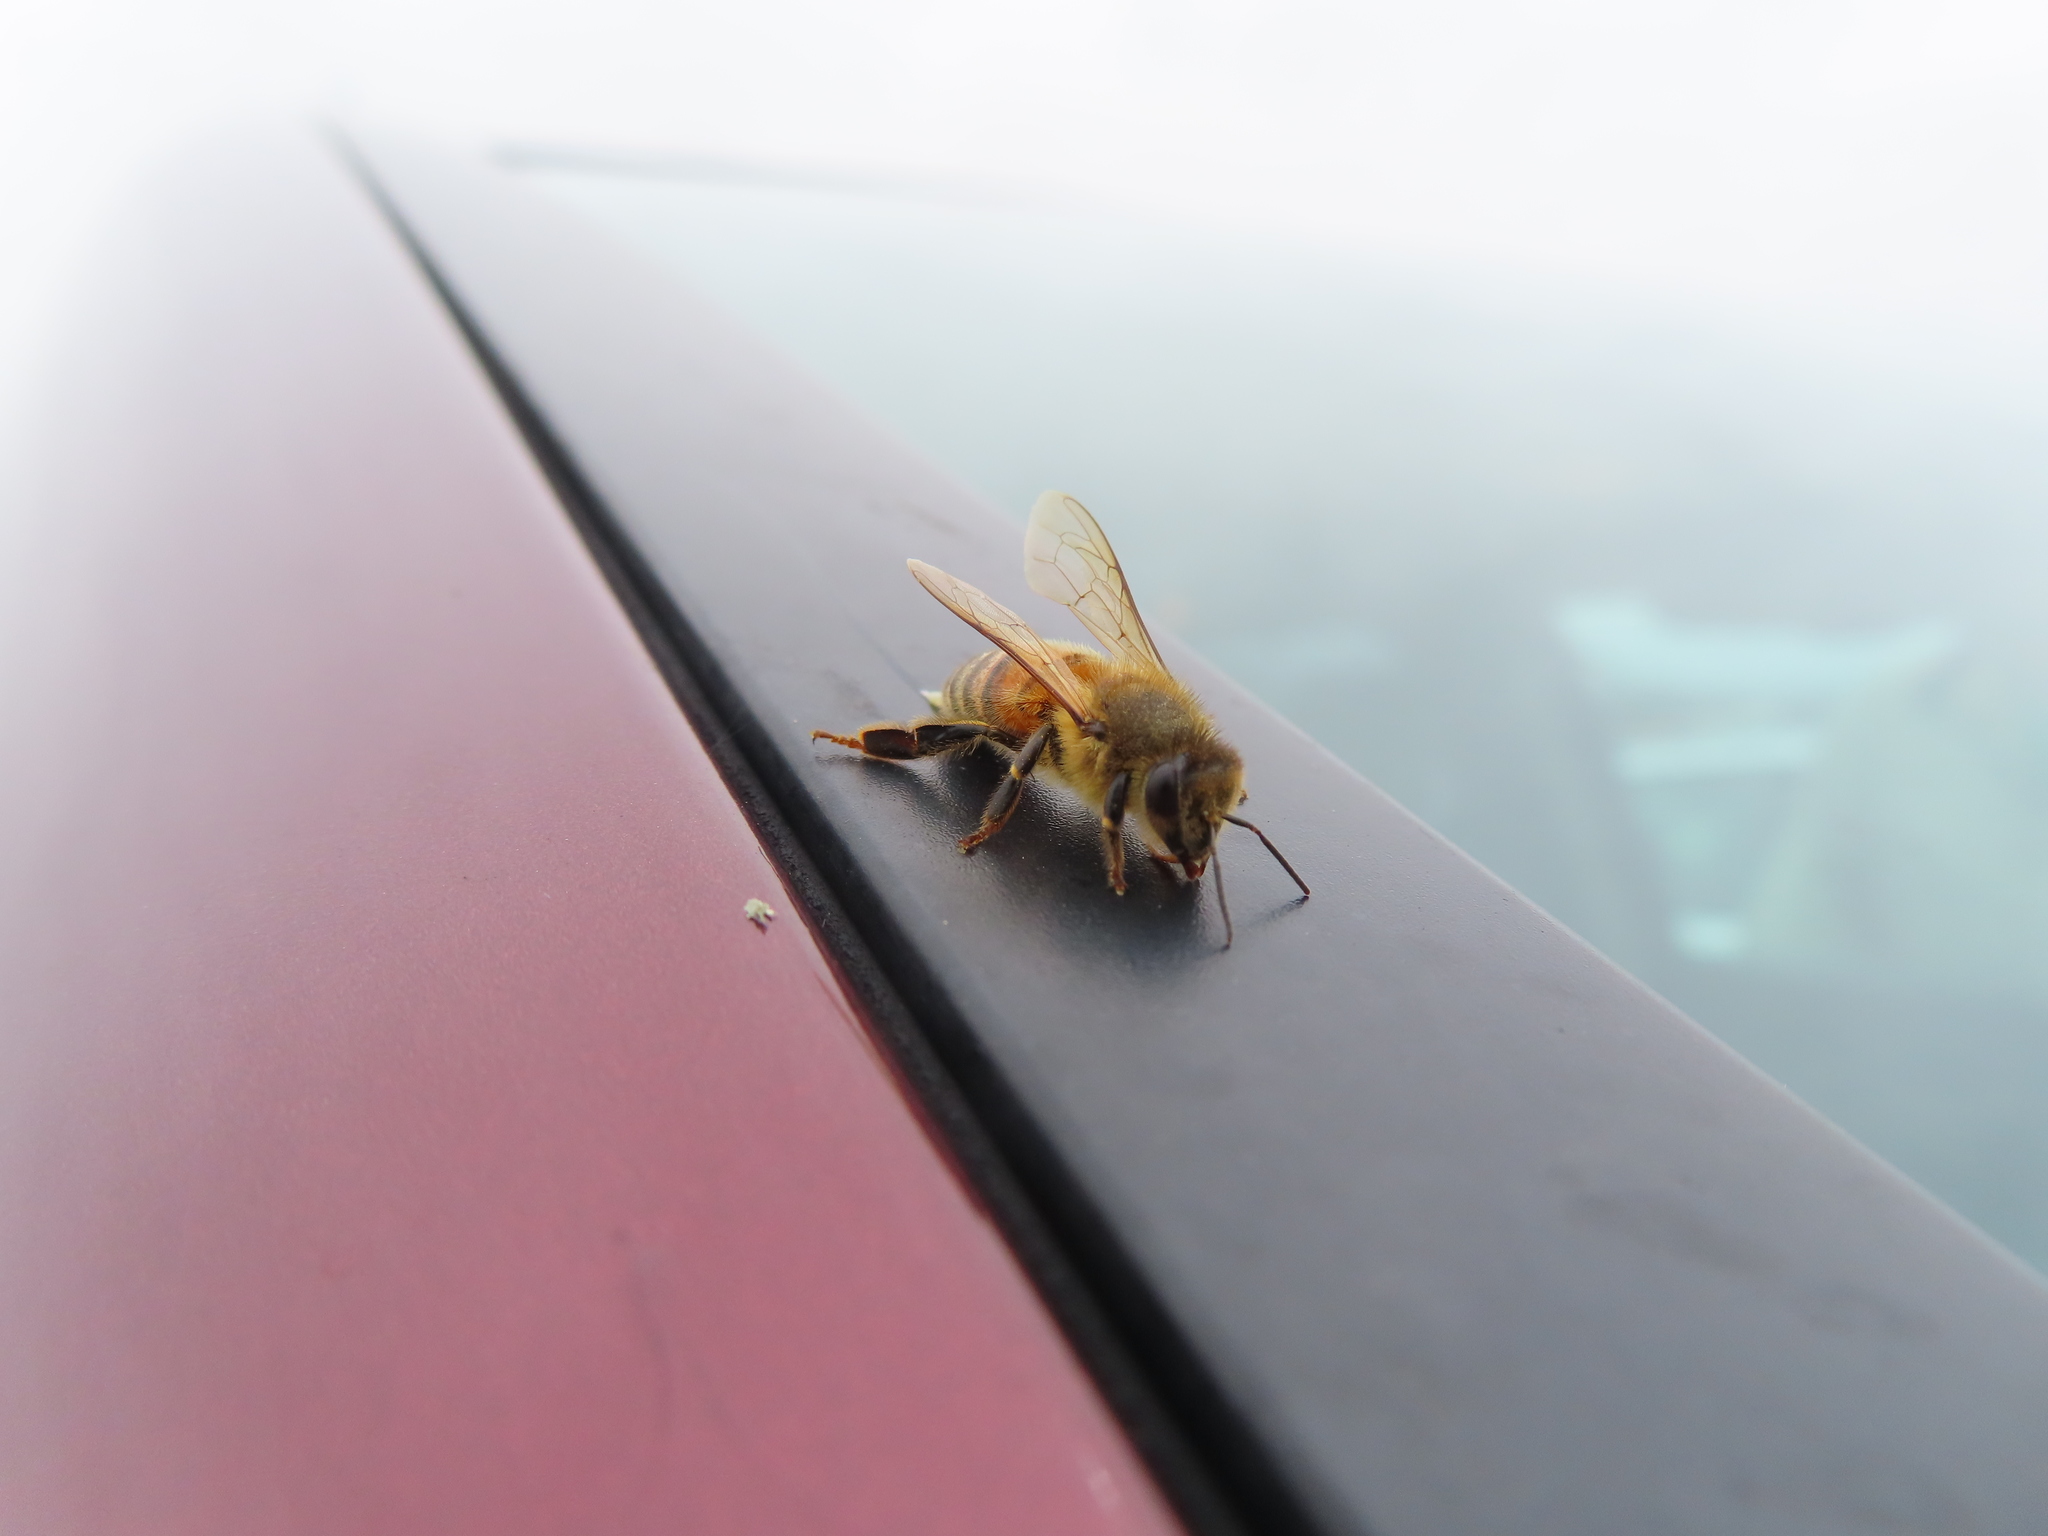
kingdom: Animalia
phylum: Arthropoda
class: Insecta
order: Hymenoptera
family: Apidae
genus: Apis
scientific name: Apis mellifera
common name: Honey bee
